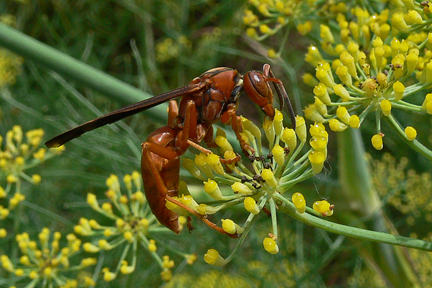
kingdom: Animalia
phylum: Arthropoda
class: Insecta
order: Hymenoptera
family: Vespidae
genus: Fuscopolistes
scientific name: Fuscopolistes
